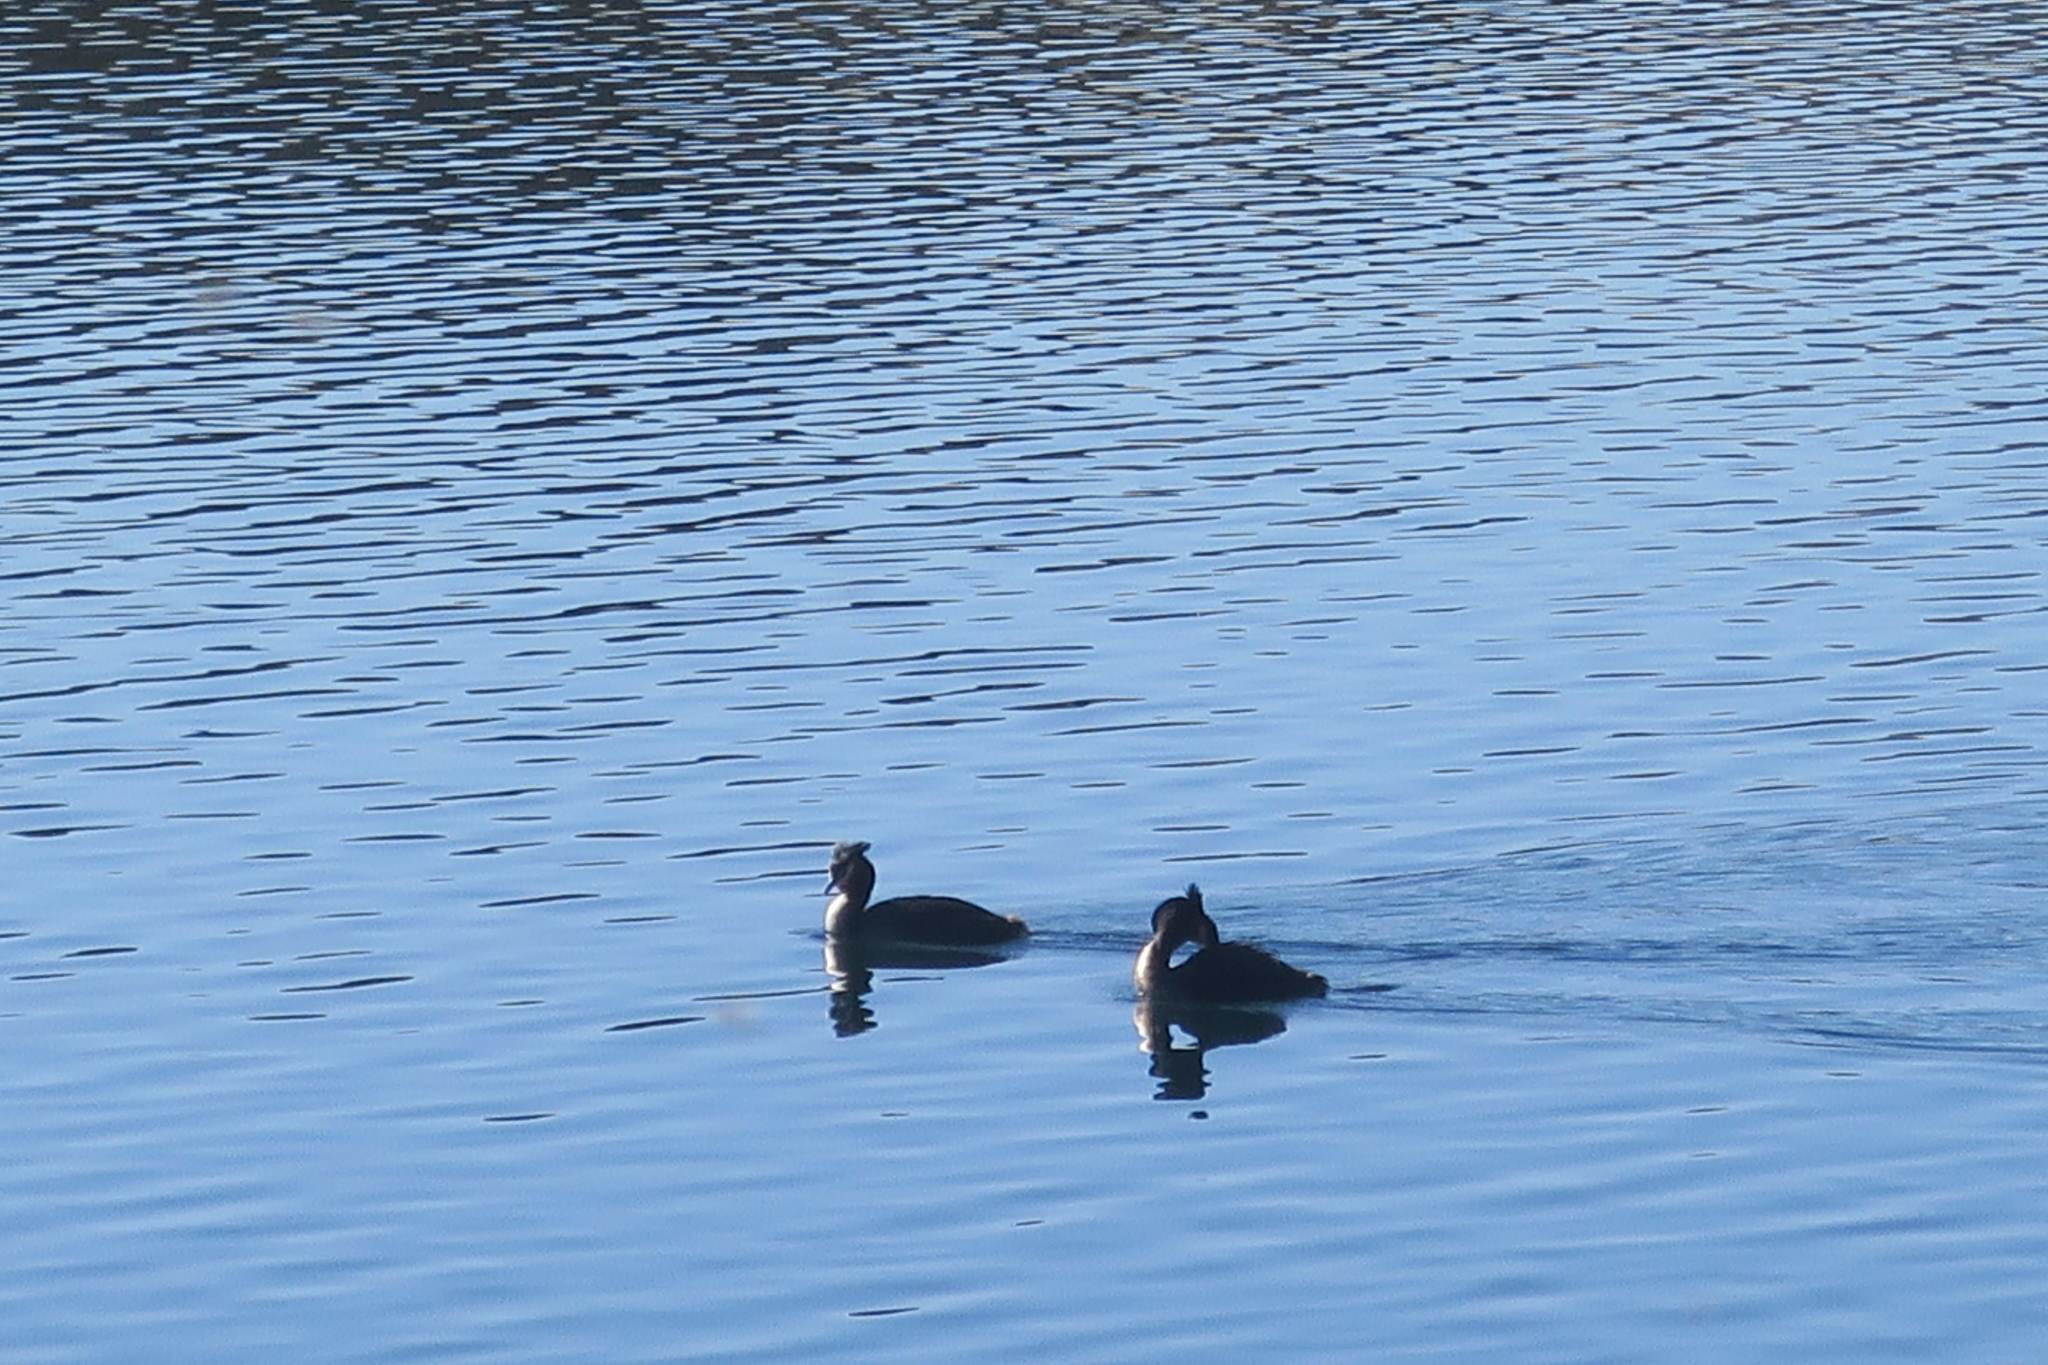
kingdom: Animalia
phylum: Chordata
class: Aves
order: Podicipediformes
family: Podicipedidae
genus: Podiceps
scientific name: Podiceps cristatus
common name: Great crested grebe
